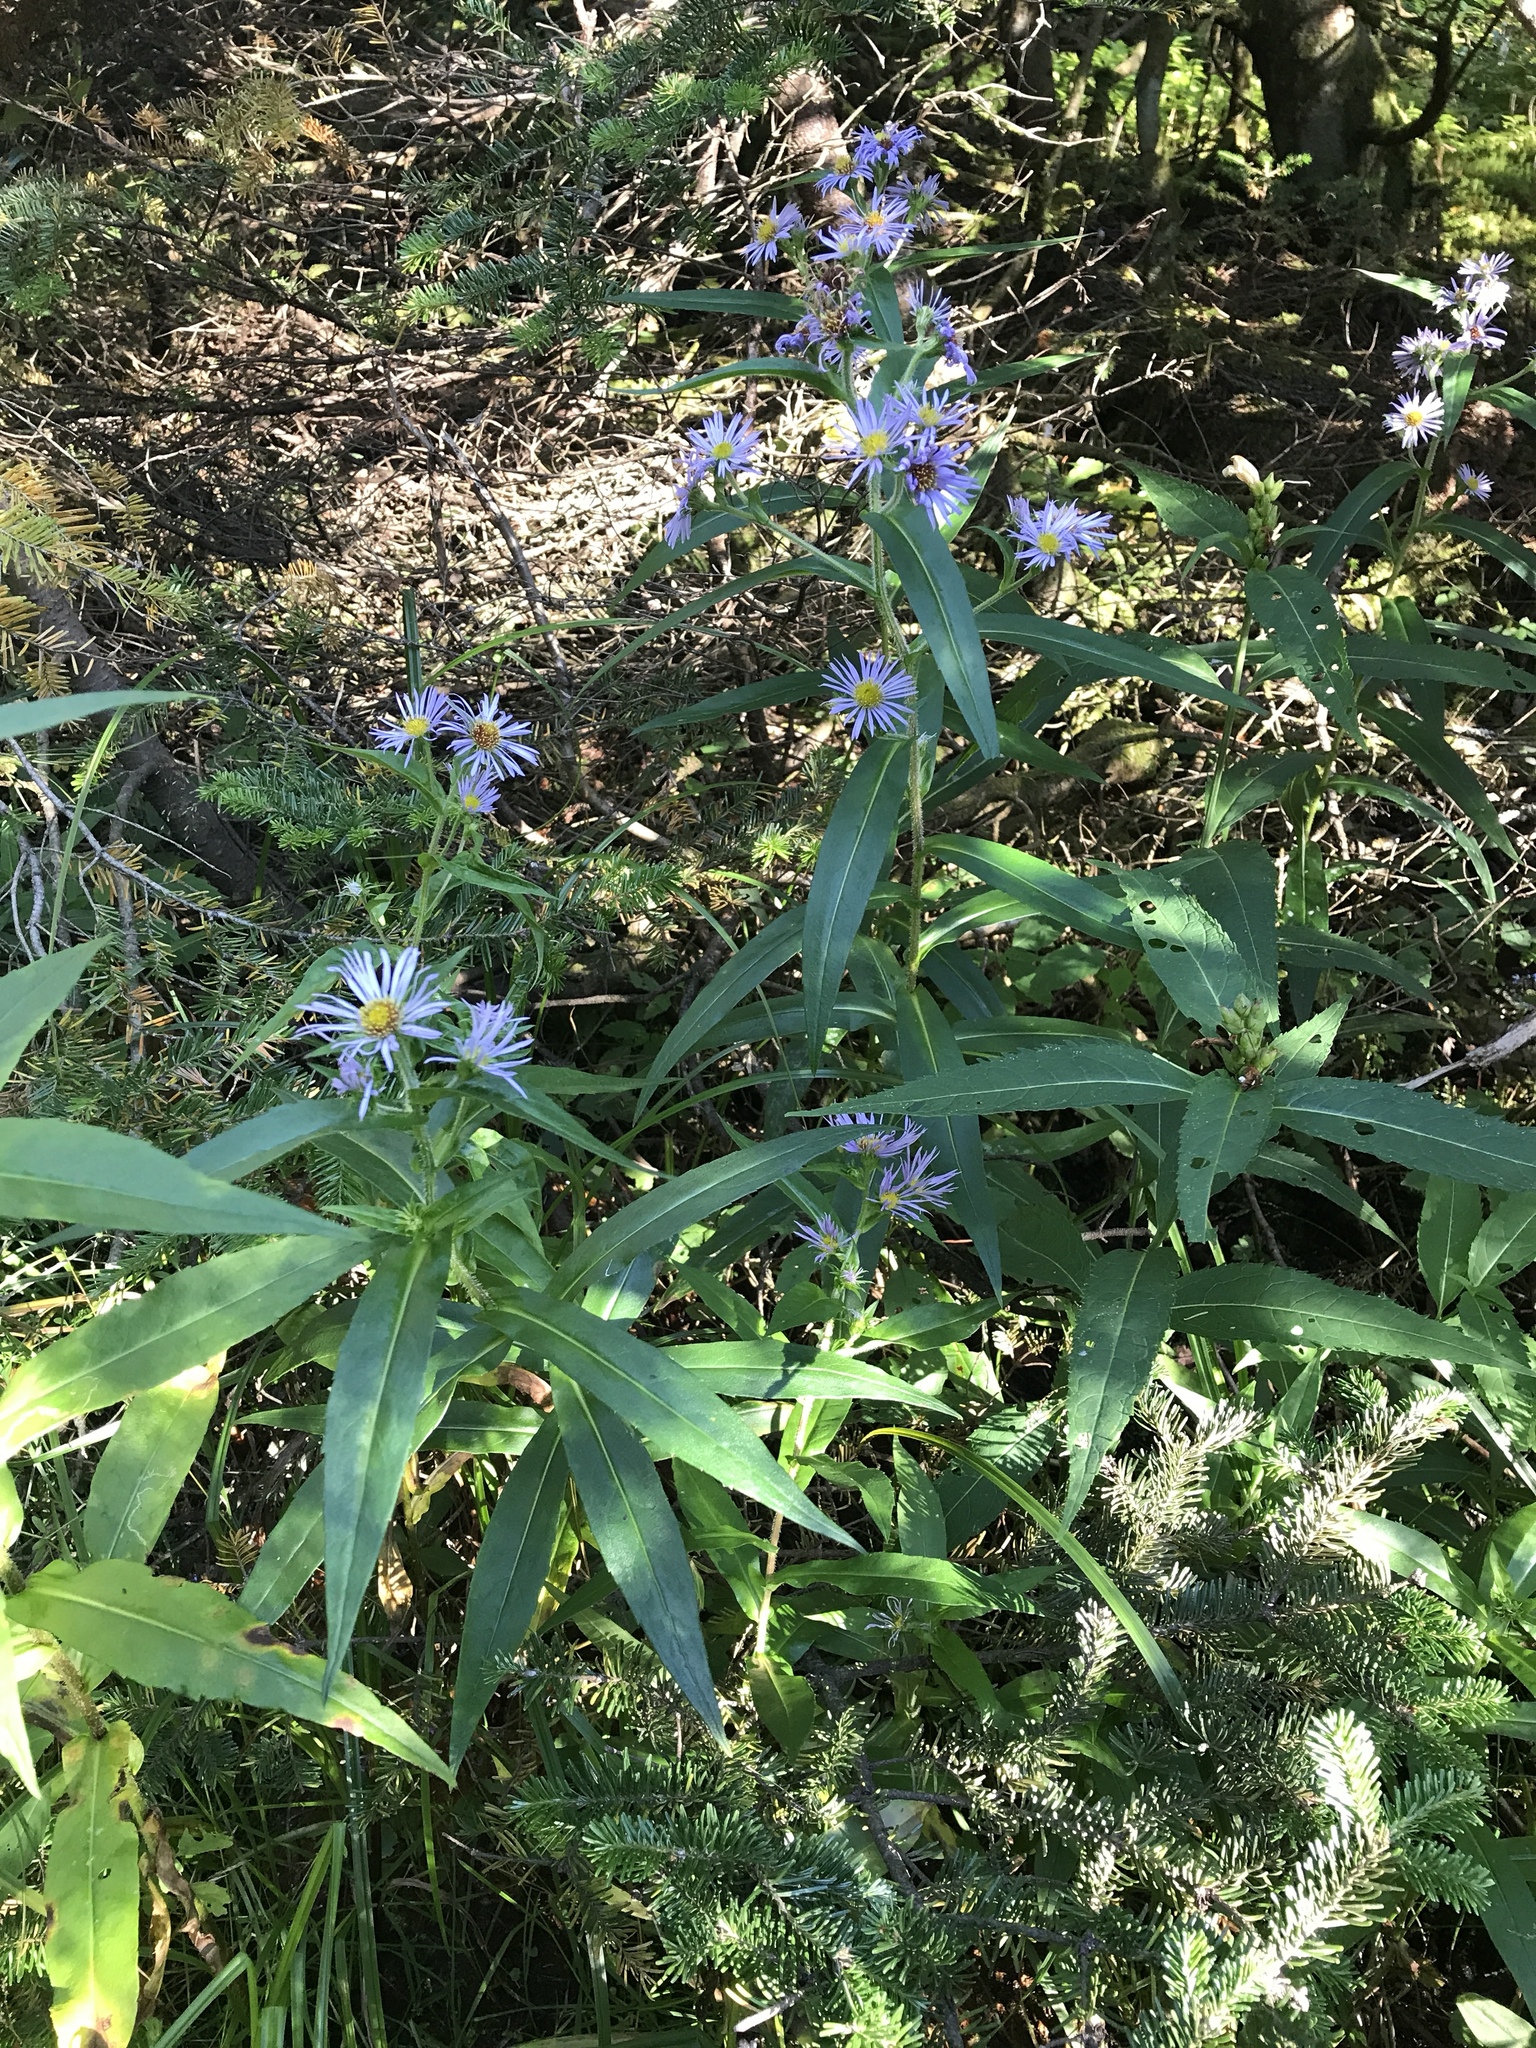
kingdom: Plantae
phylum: Tracheophyta
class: Magnoliopsida
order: Asterales
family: Asteraceae
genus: Symphyotrichum
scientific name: Symphyotrichum puniceum
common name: Bog aster
